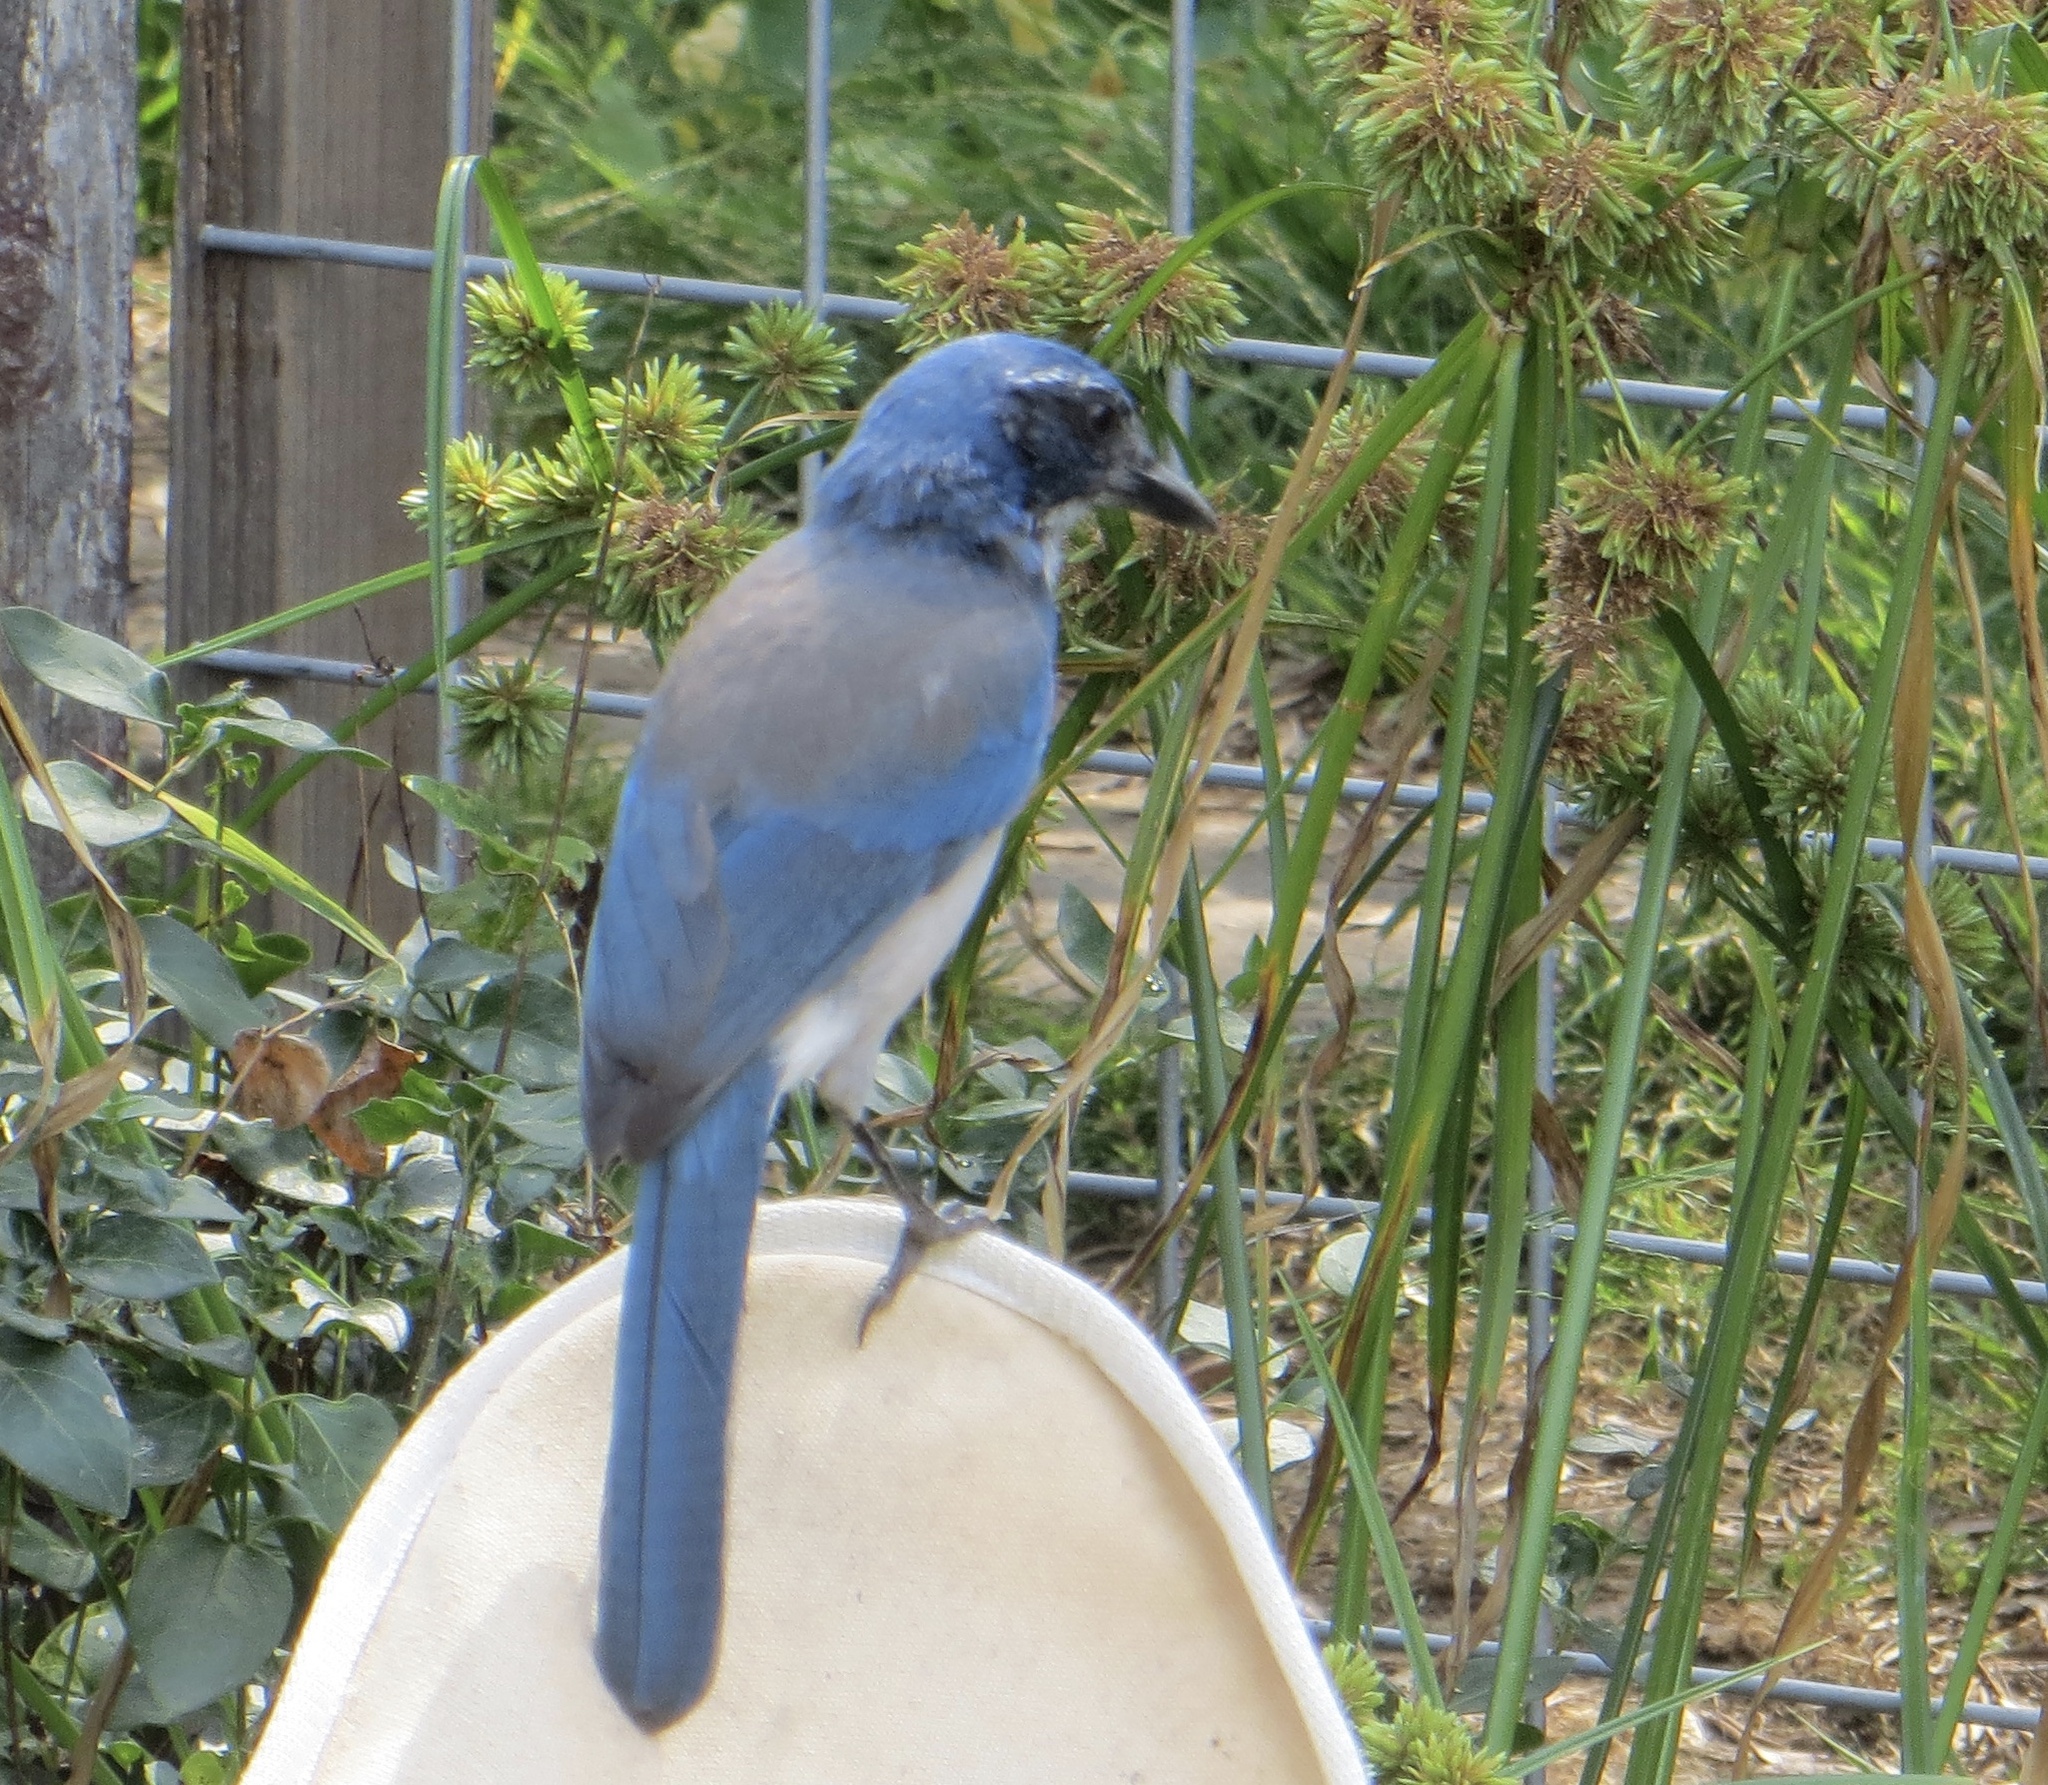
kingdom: Animalia
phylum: Chordata
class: Aves
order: Passeriformes
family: Corvidae
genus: Aphelocoma
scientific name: Aphelocoma californica
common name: California scrub-jay
